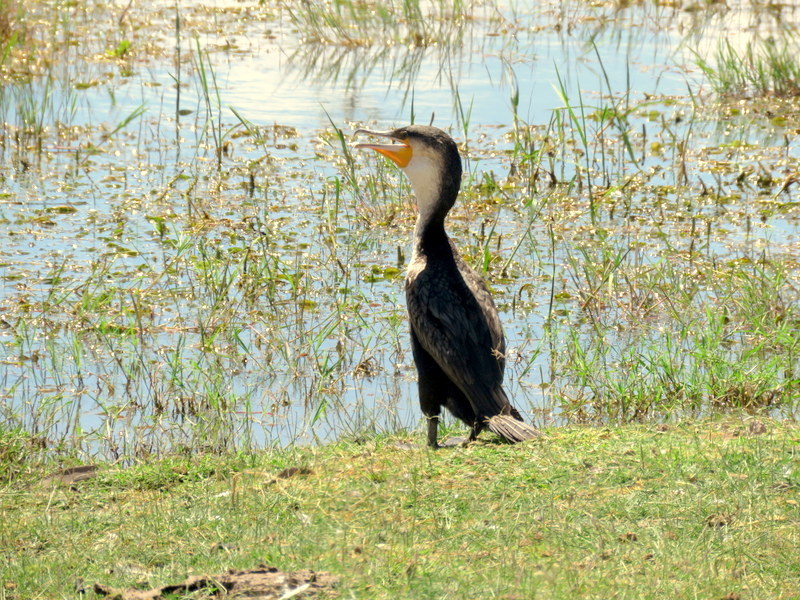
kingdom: Animalia
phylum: Chordata
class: Aves
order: Suliformes
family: Phalacrocoracidae
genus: Phalacrocorax
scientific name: Phalacrocorax carbo
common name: Great cormorant
